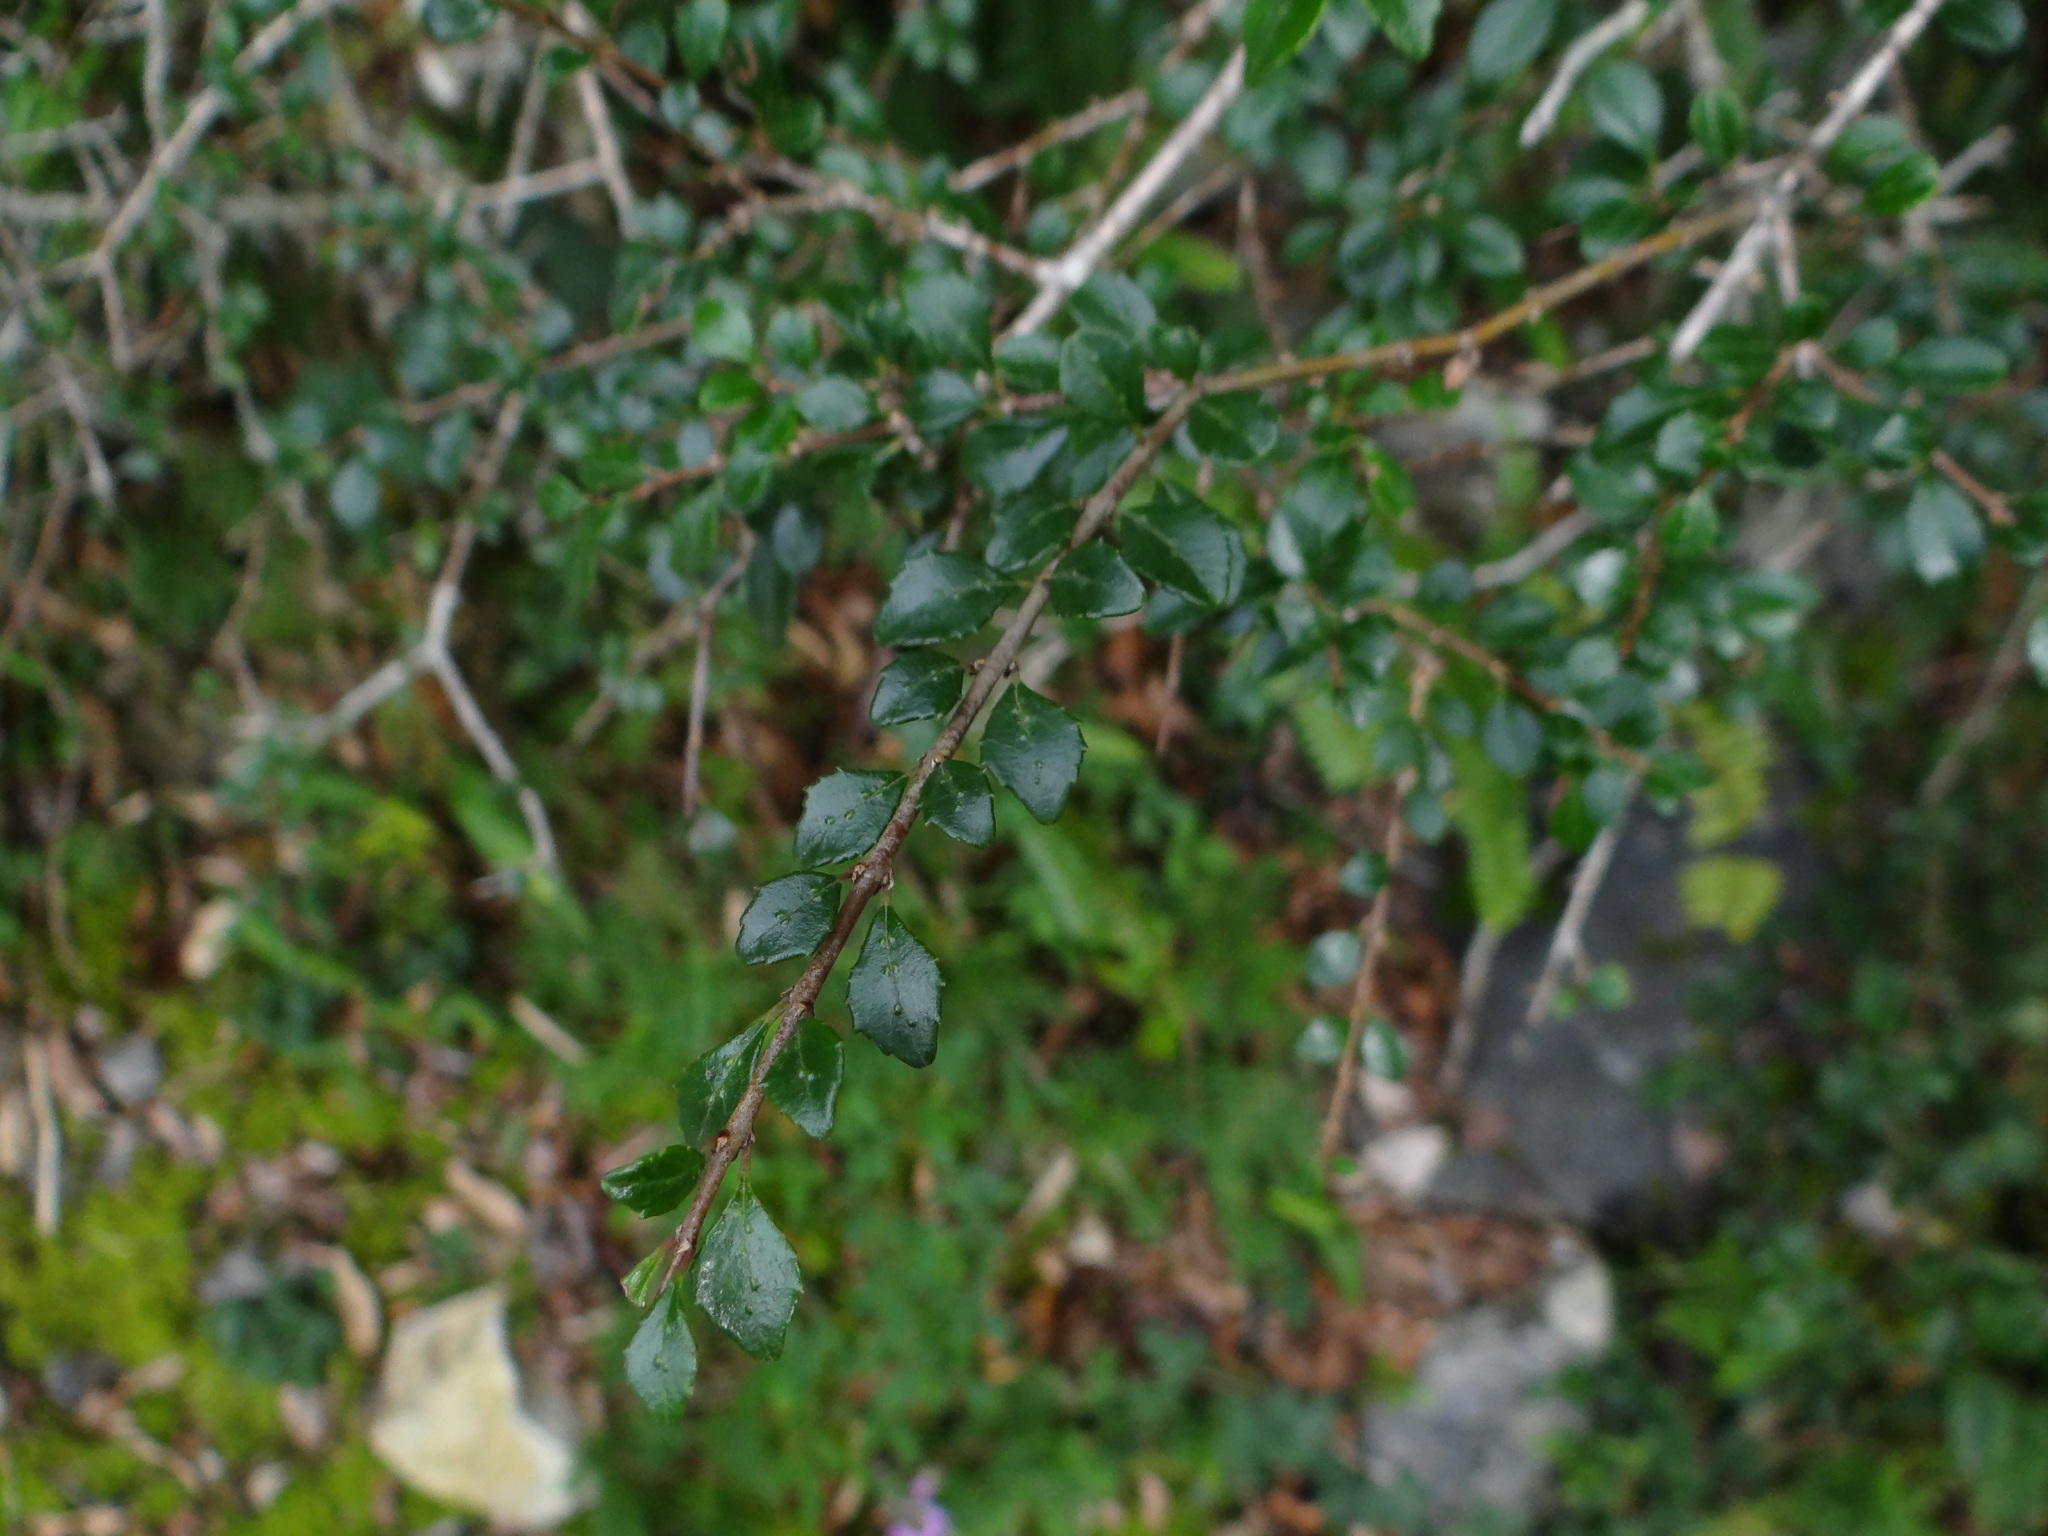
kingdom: Plantae
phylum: Tracheophyta
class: Magnoliopsida
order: Rosales
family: Rhamnaceae
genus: Rhamnus
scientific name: Rhamnus parvifolia
